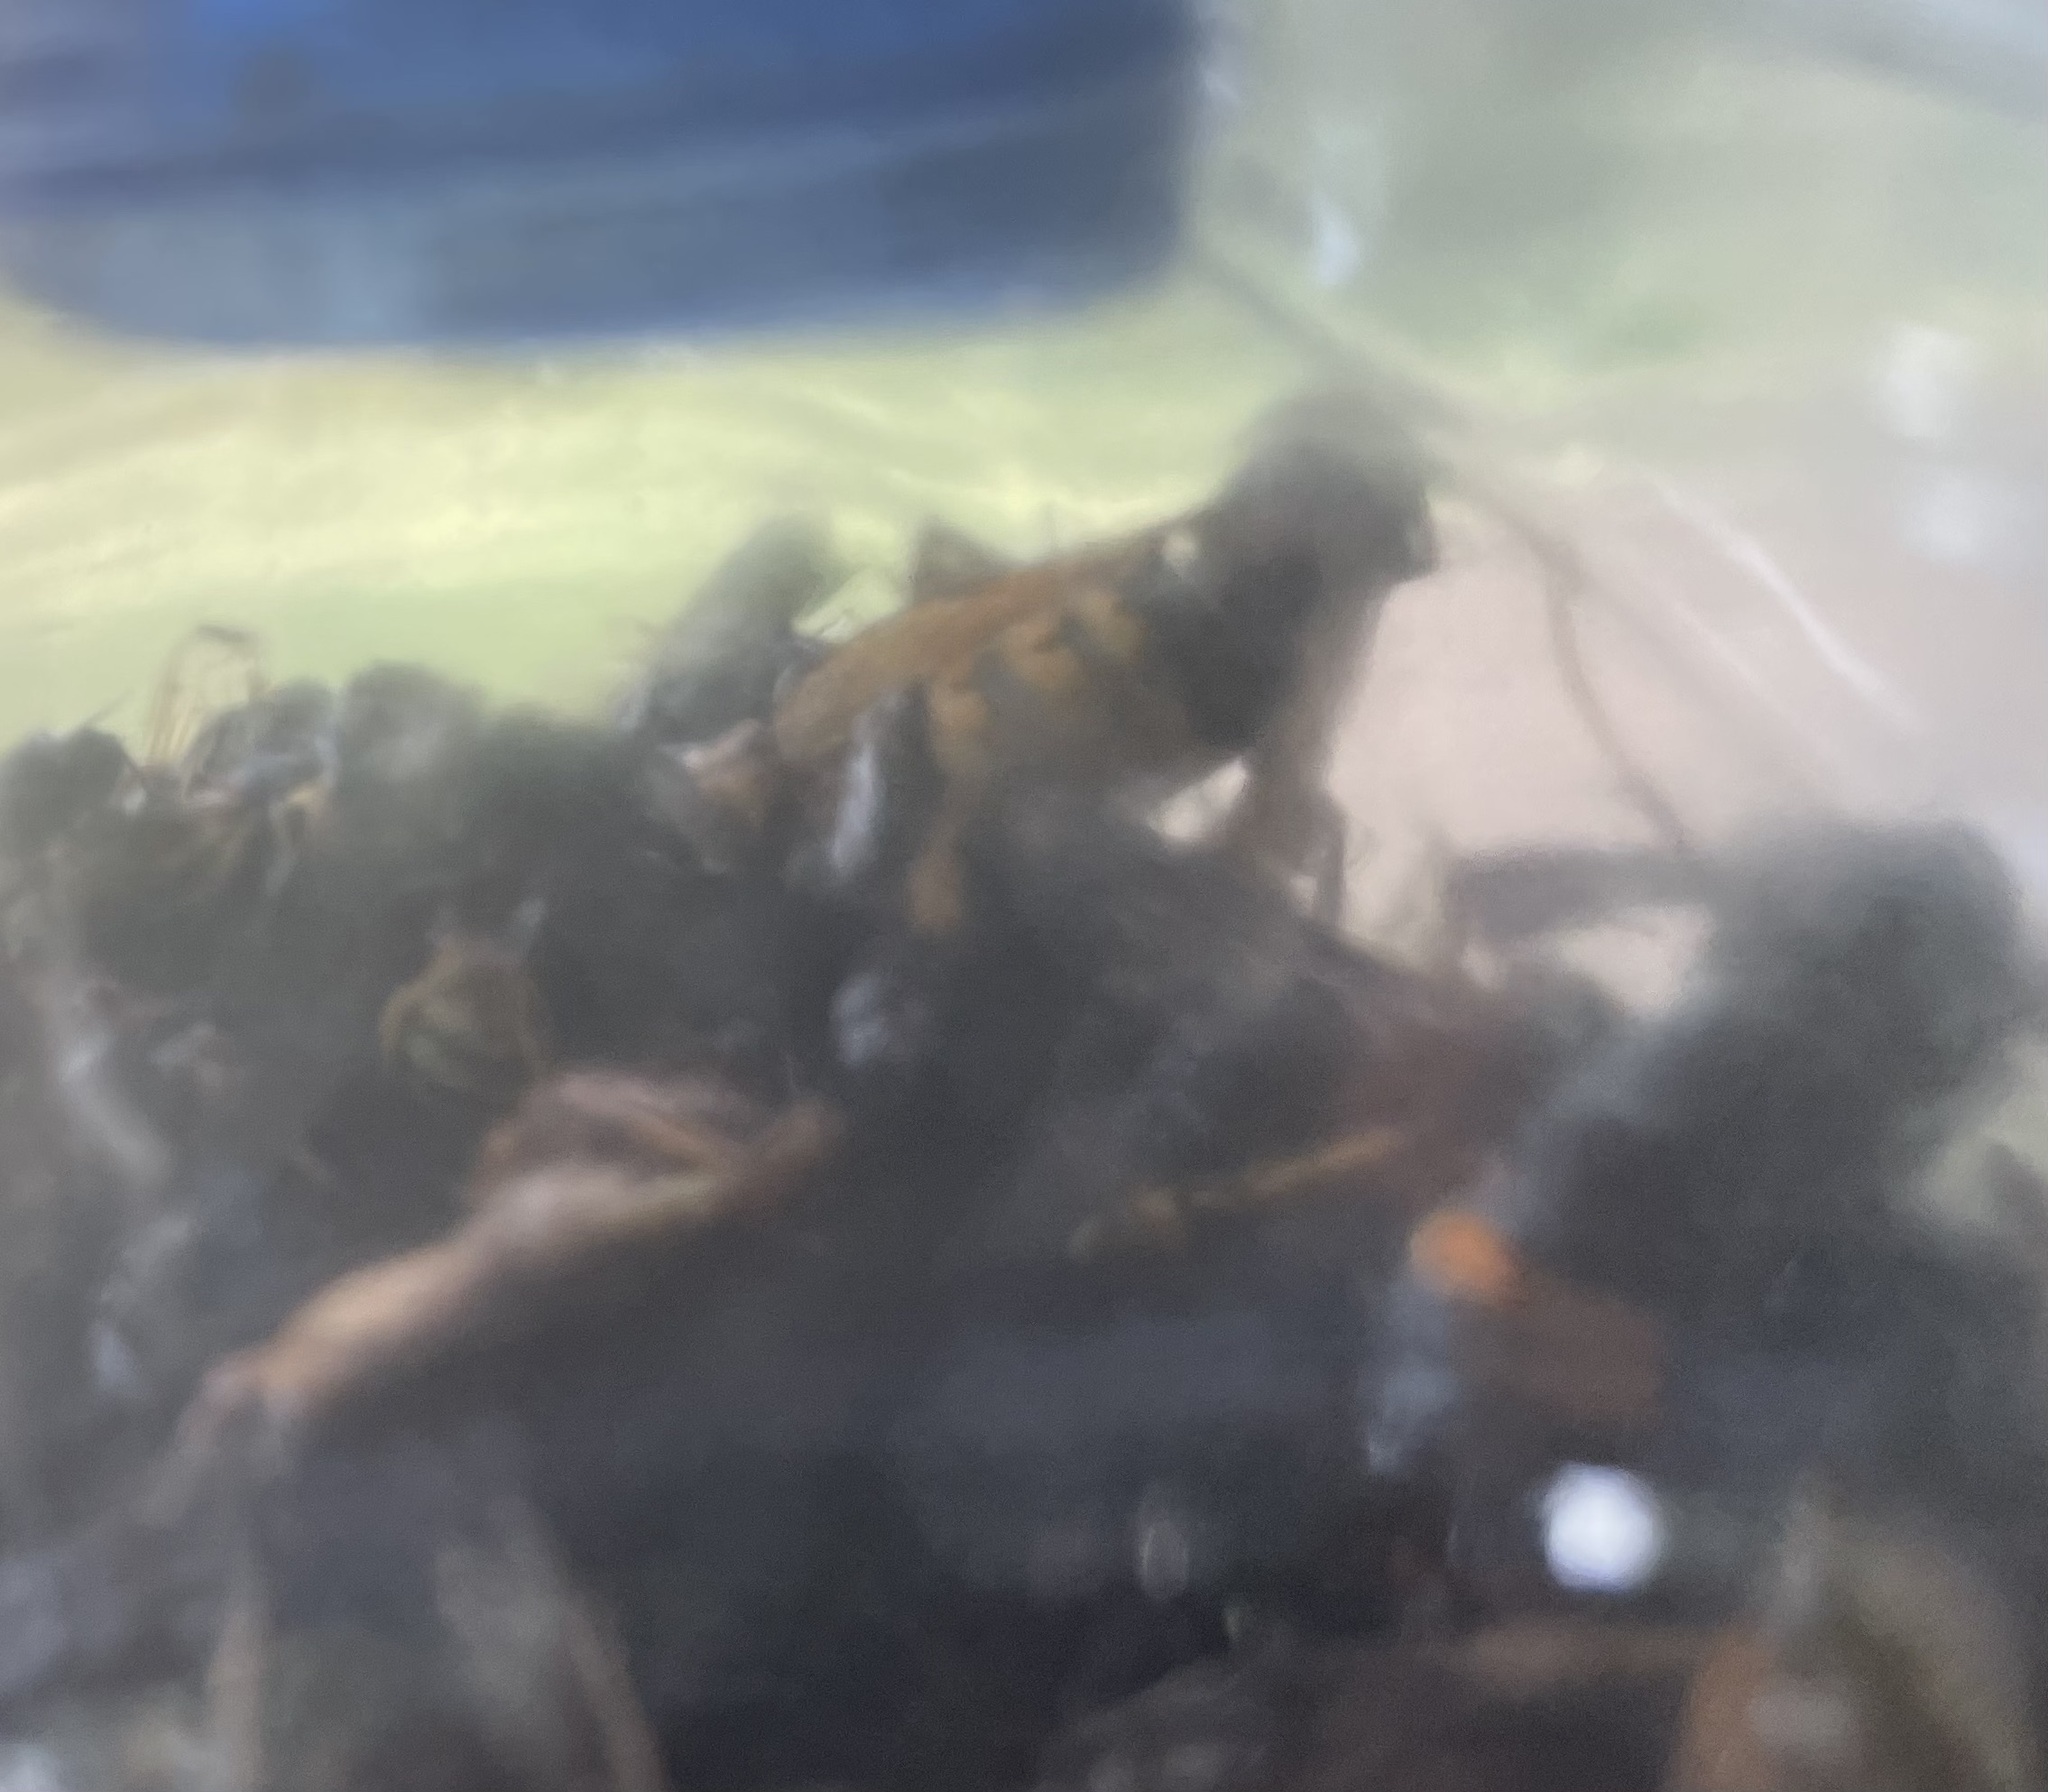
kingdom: Animalia
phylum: Arthropoda
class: Insecta
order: Hymenoptera
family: Vespidae
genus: Vespa
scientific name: Vespa velutina
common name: Asian hornet
